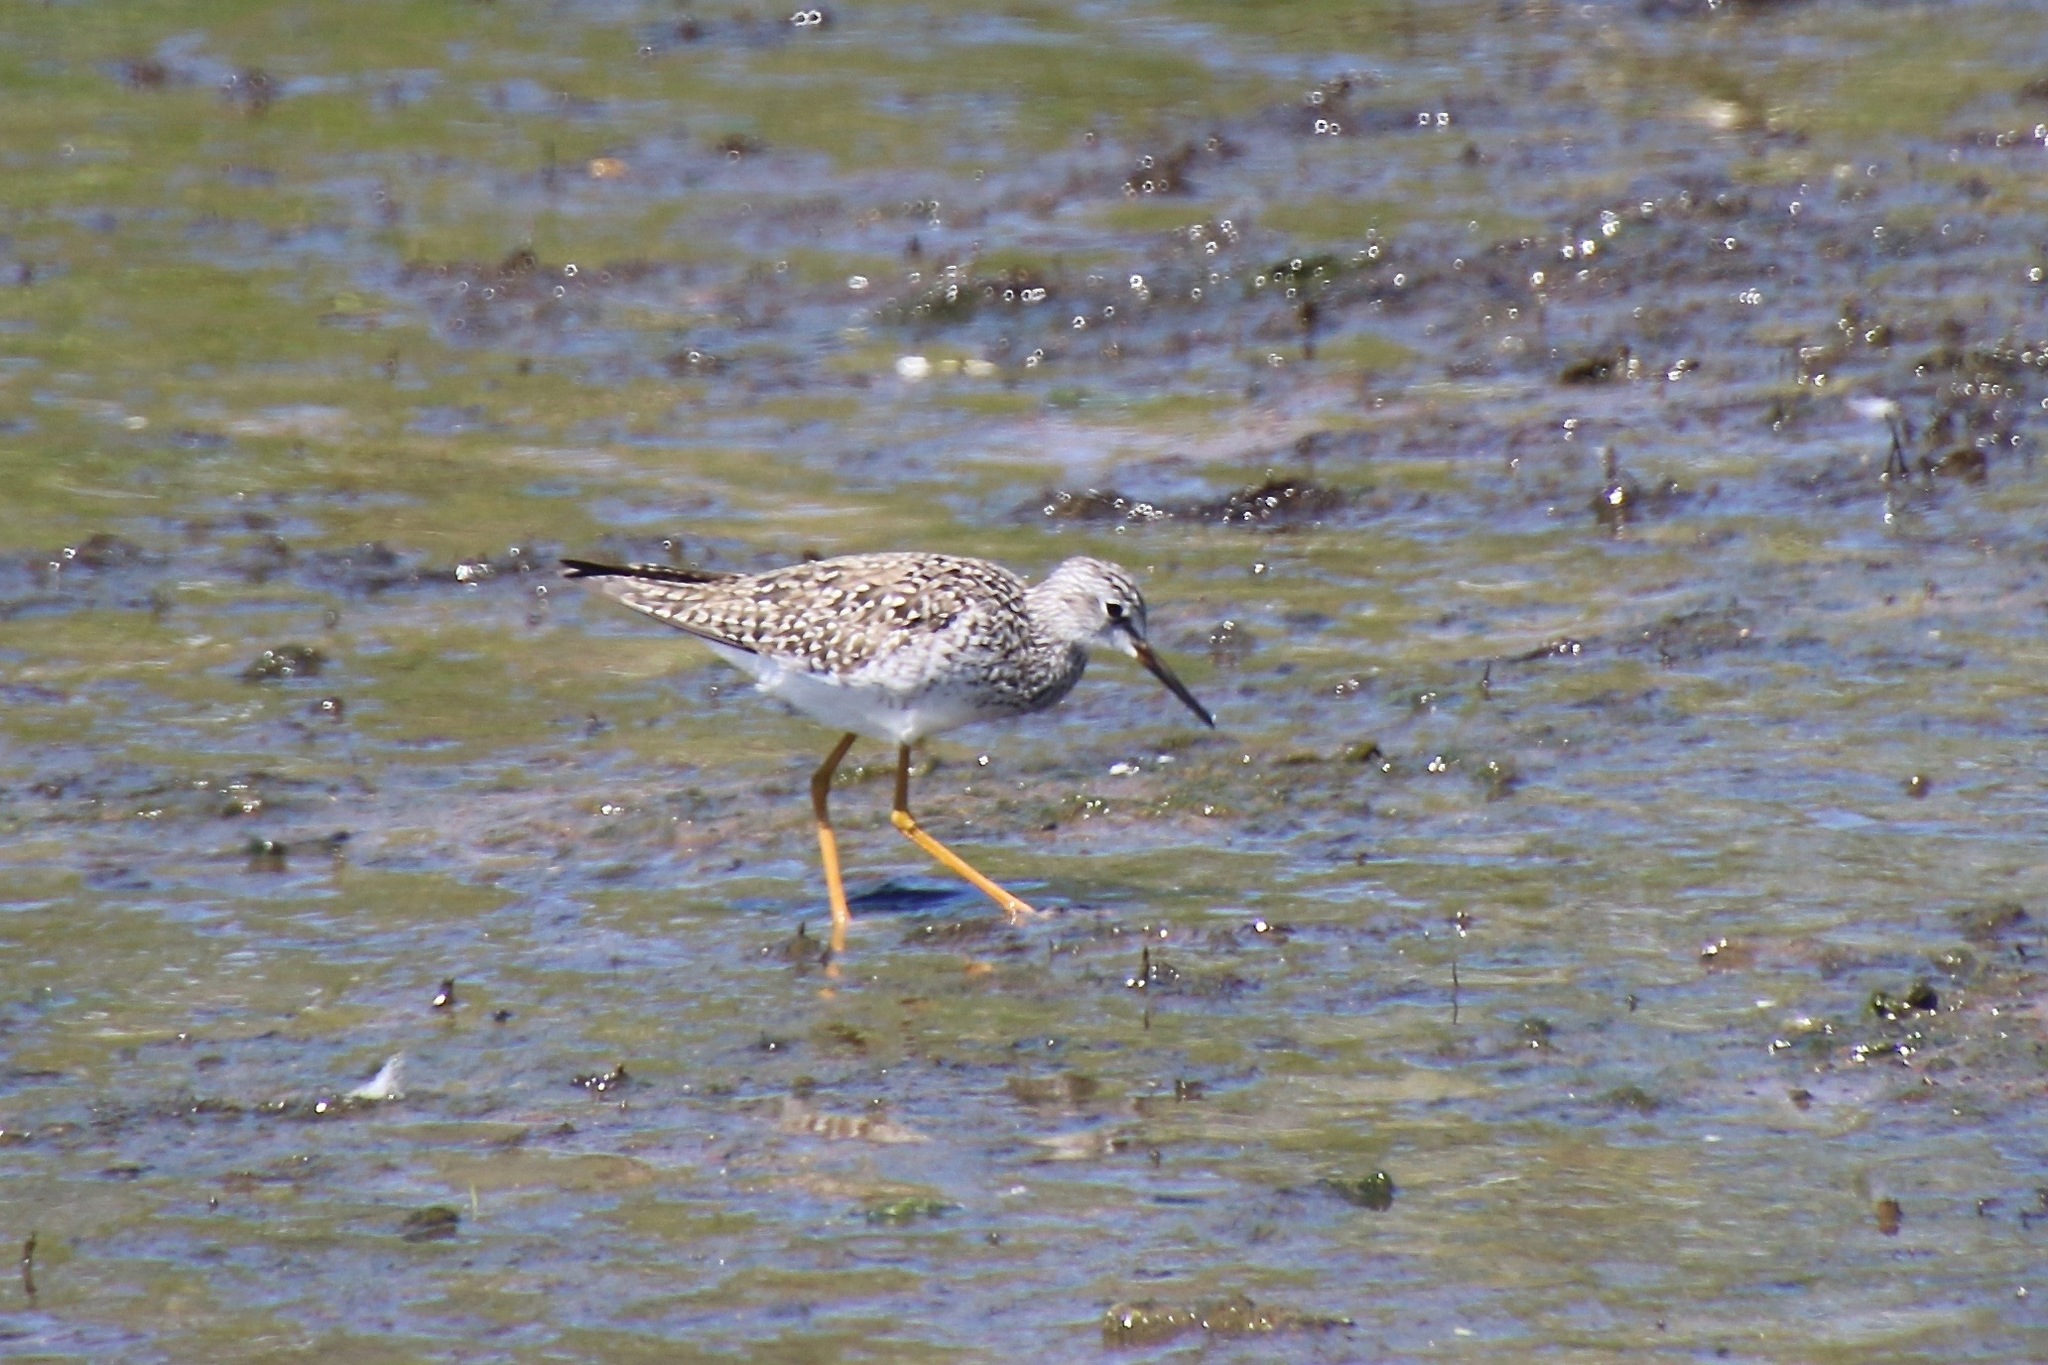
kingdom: Animalia
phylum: Chordata
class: Aves
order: Charadriiformes
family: Scolopacidae
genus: Tringa
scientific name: Tringa flavipes
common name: Lesser yellowlegs
